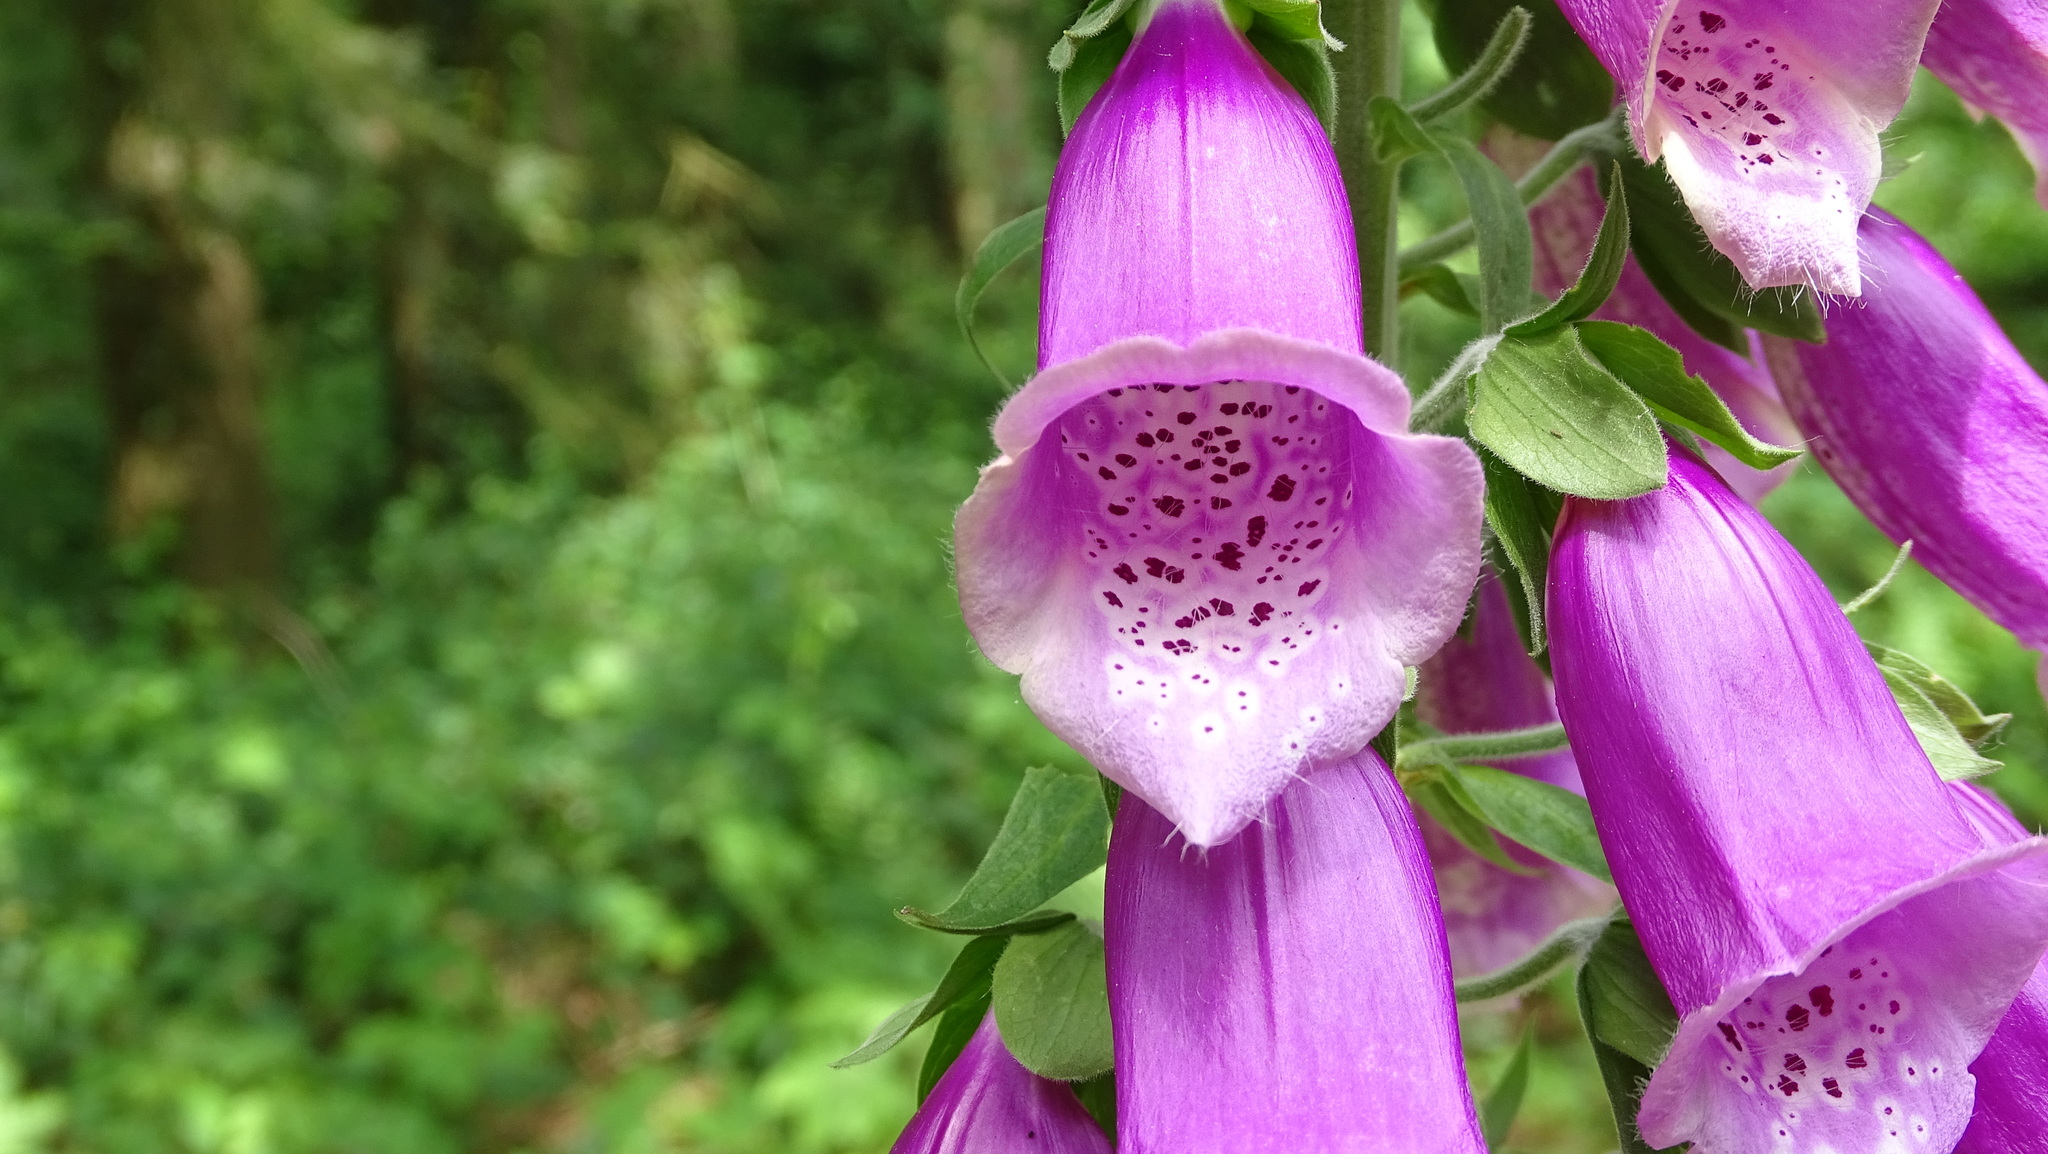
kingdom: Plantae
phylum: Tracheophyta
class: Magnoliopsida
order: Lamiales
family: Plantaginaceae
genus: Digitalis
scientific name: Digitalis purpurea
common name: Foxglove
